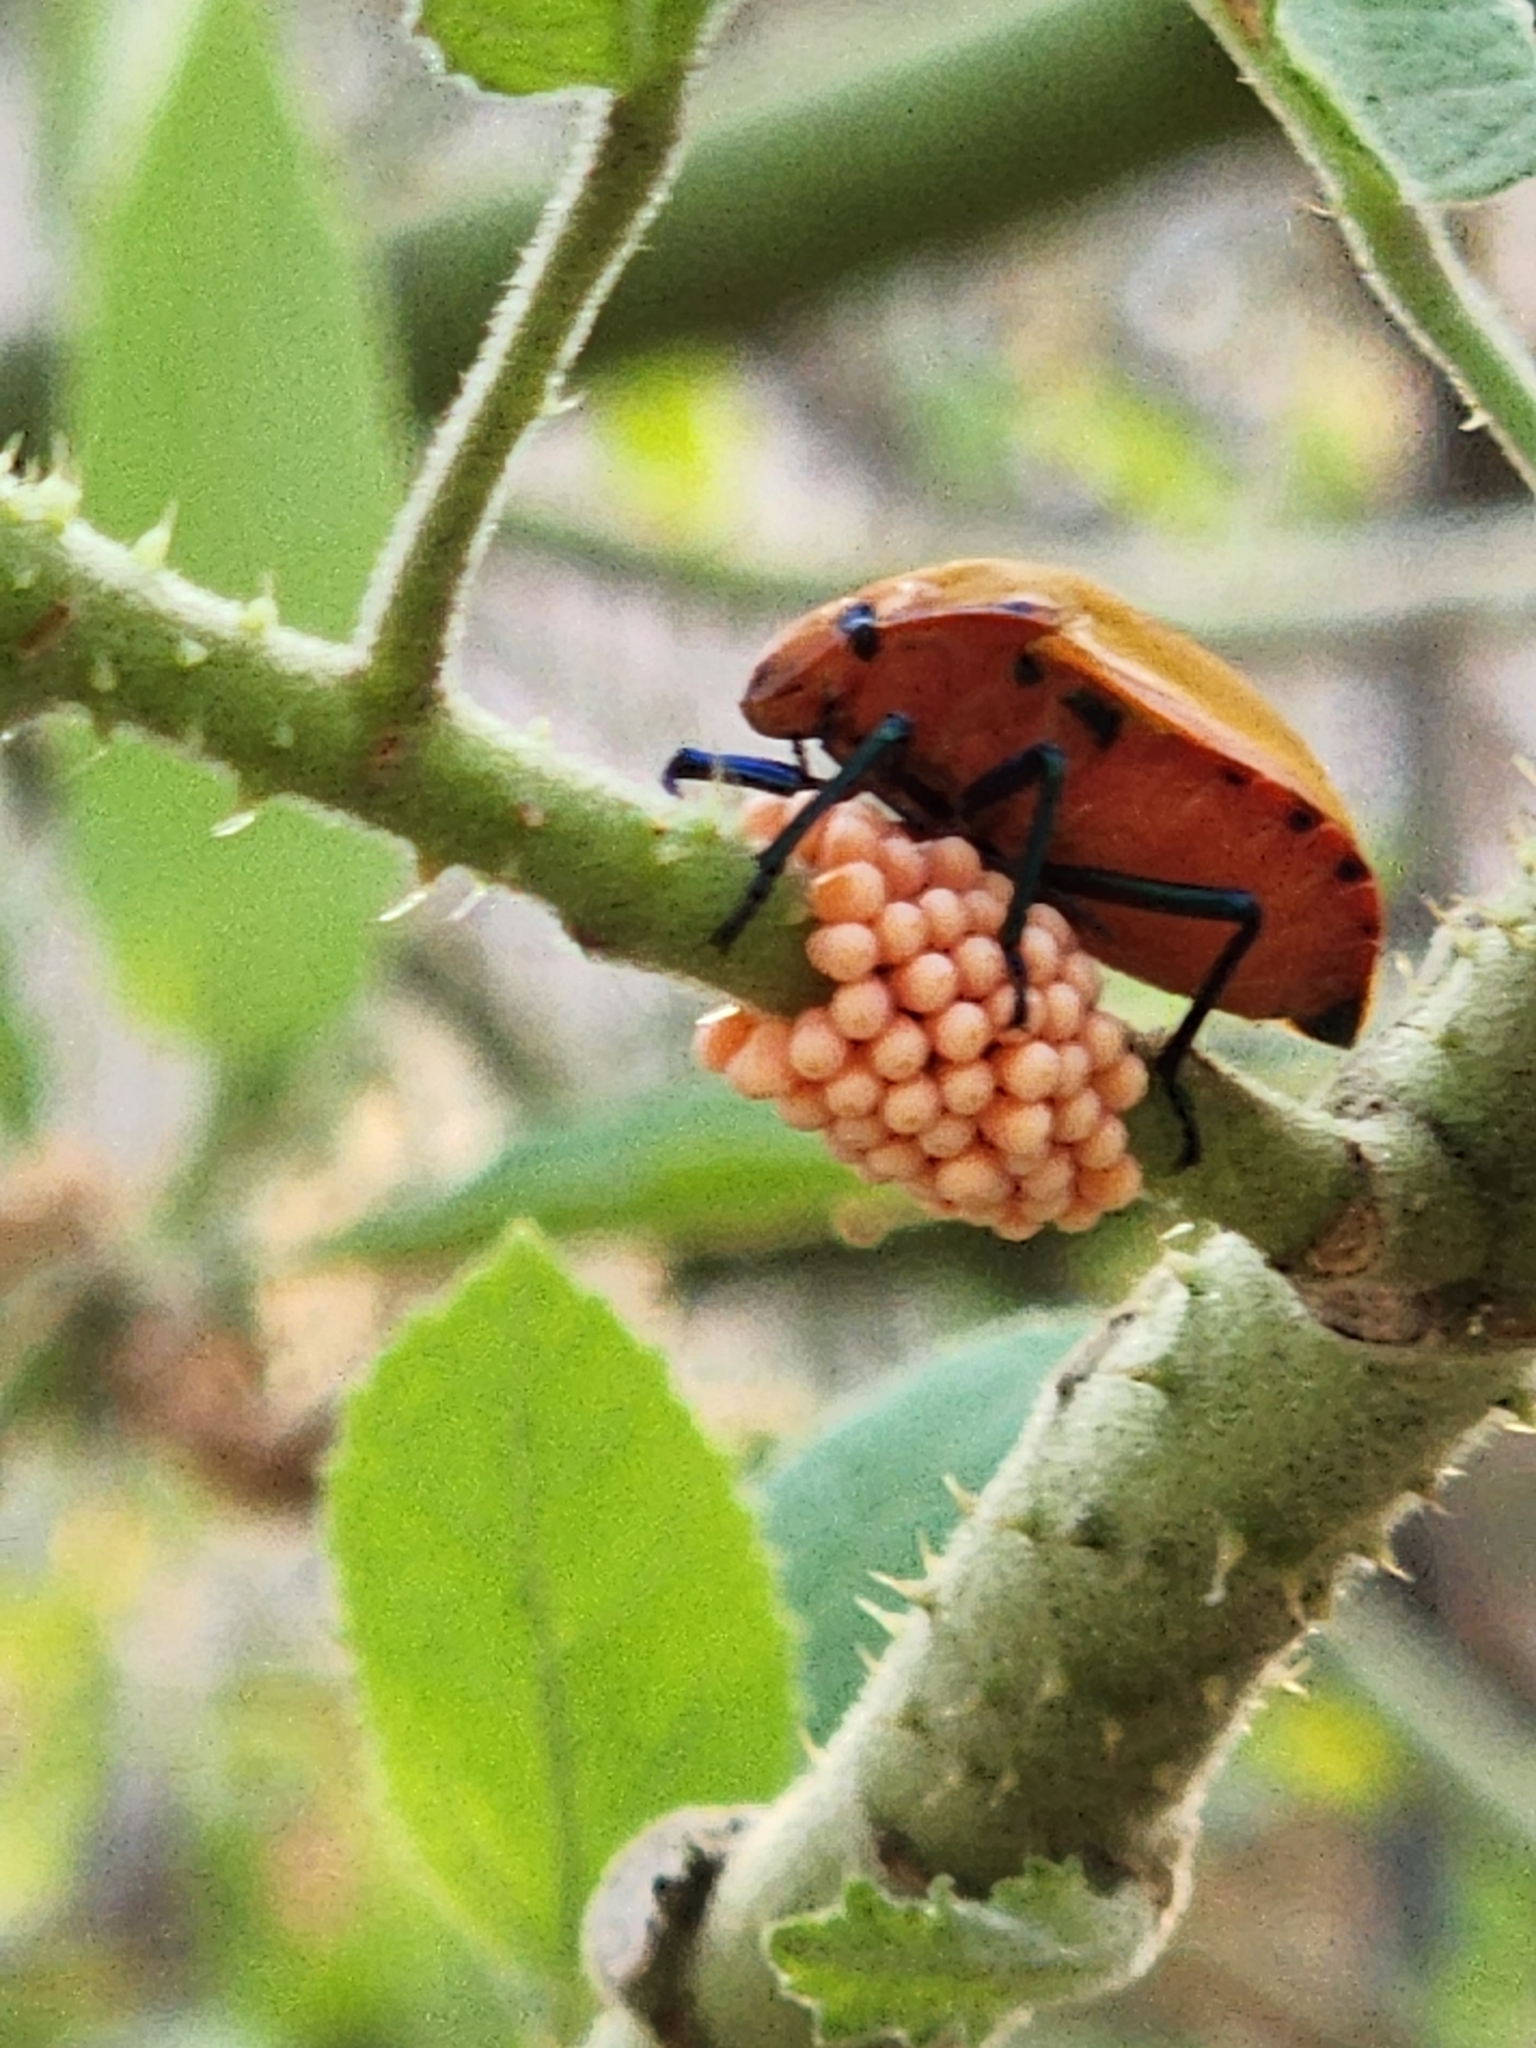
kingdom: Animalia
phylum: Arthropoda
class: Insecta
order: Hemiptera
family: Scutelleridae
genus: Tectocoris
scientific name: Tectocoris diophthalmus
